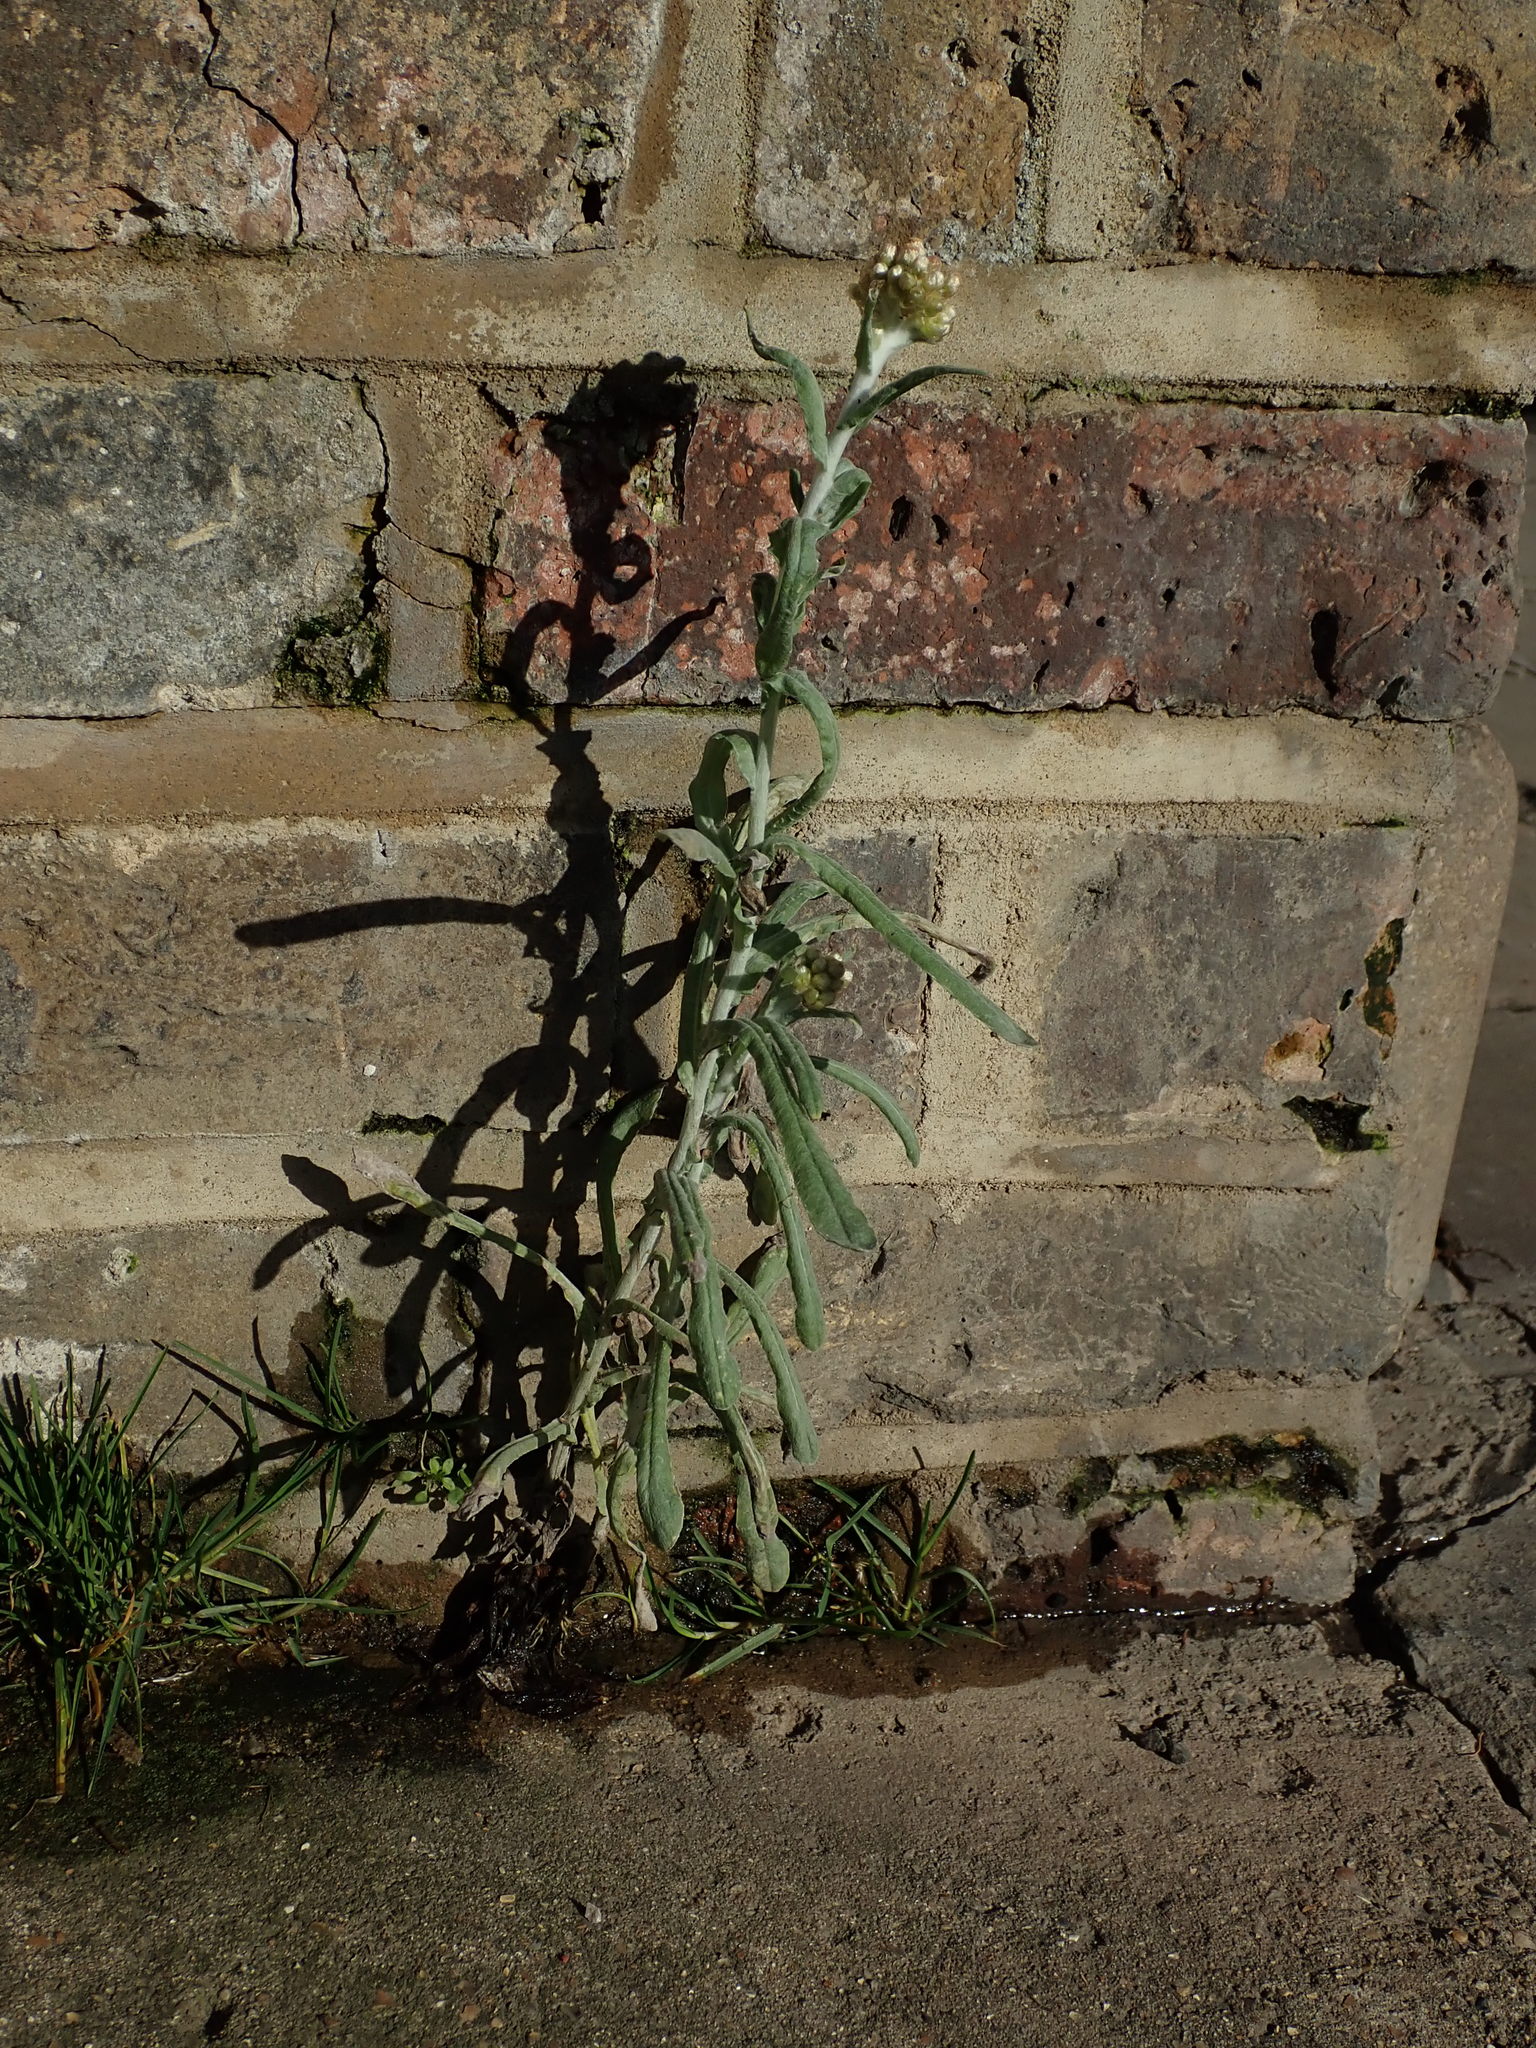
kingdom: Plantae
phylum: Tracheophyta
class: Magnoliopsida
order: Asterales
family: Asteraceae
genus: Helichrysum
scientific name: Helichrysum luteoalbum
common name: Daisy
